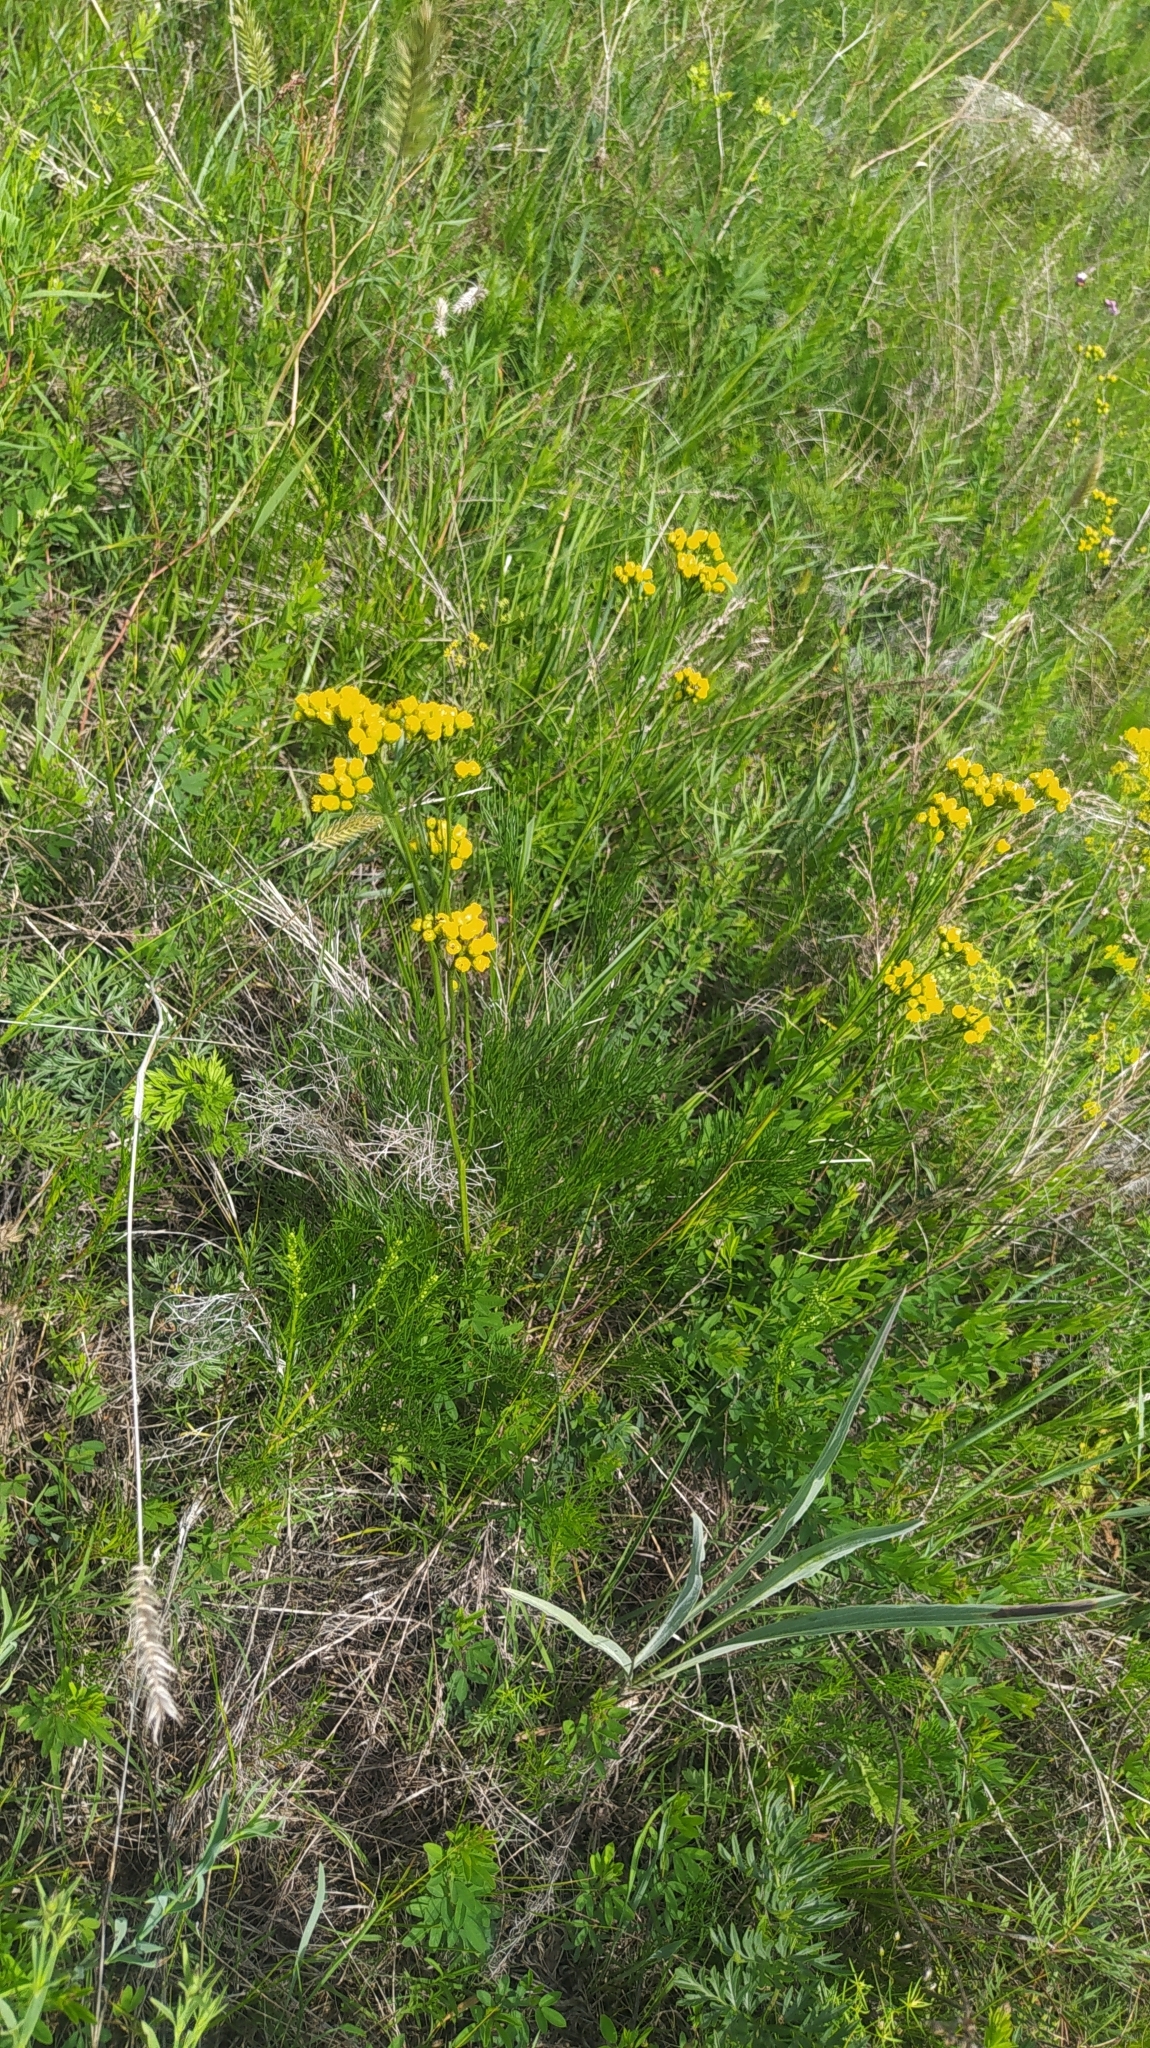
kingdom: Plantae
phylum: Tracheophyta
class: Magnoliopsida
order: Asterales
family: Asteraceae
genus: Filifolium
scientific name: Filifolium sibiricum
